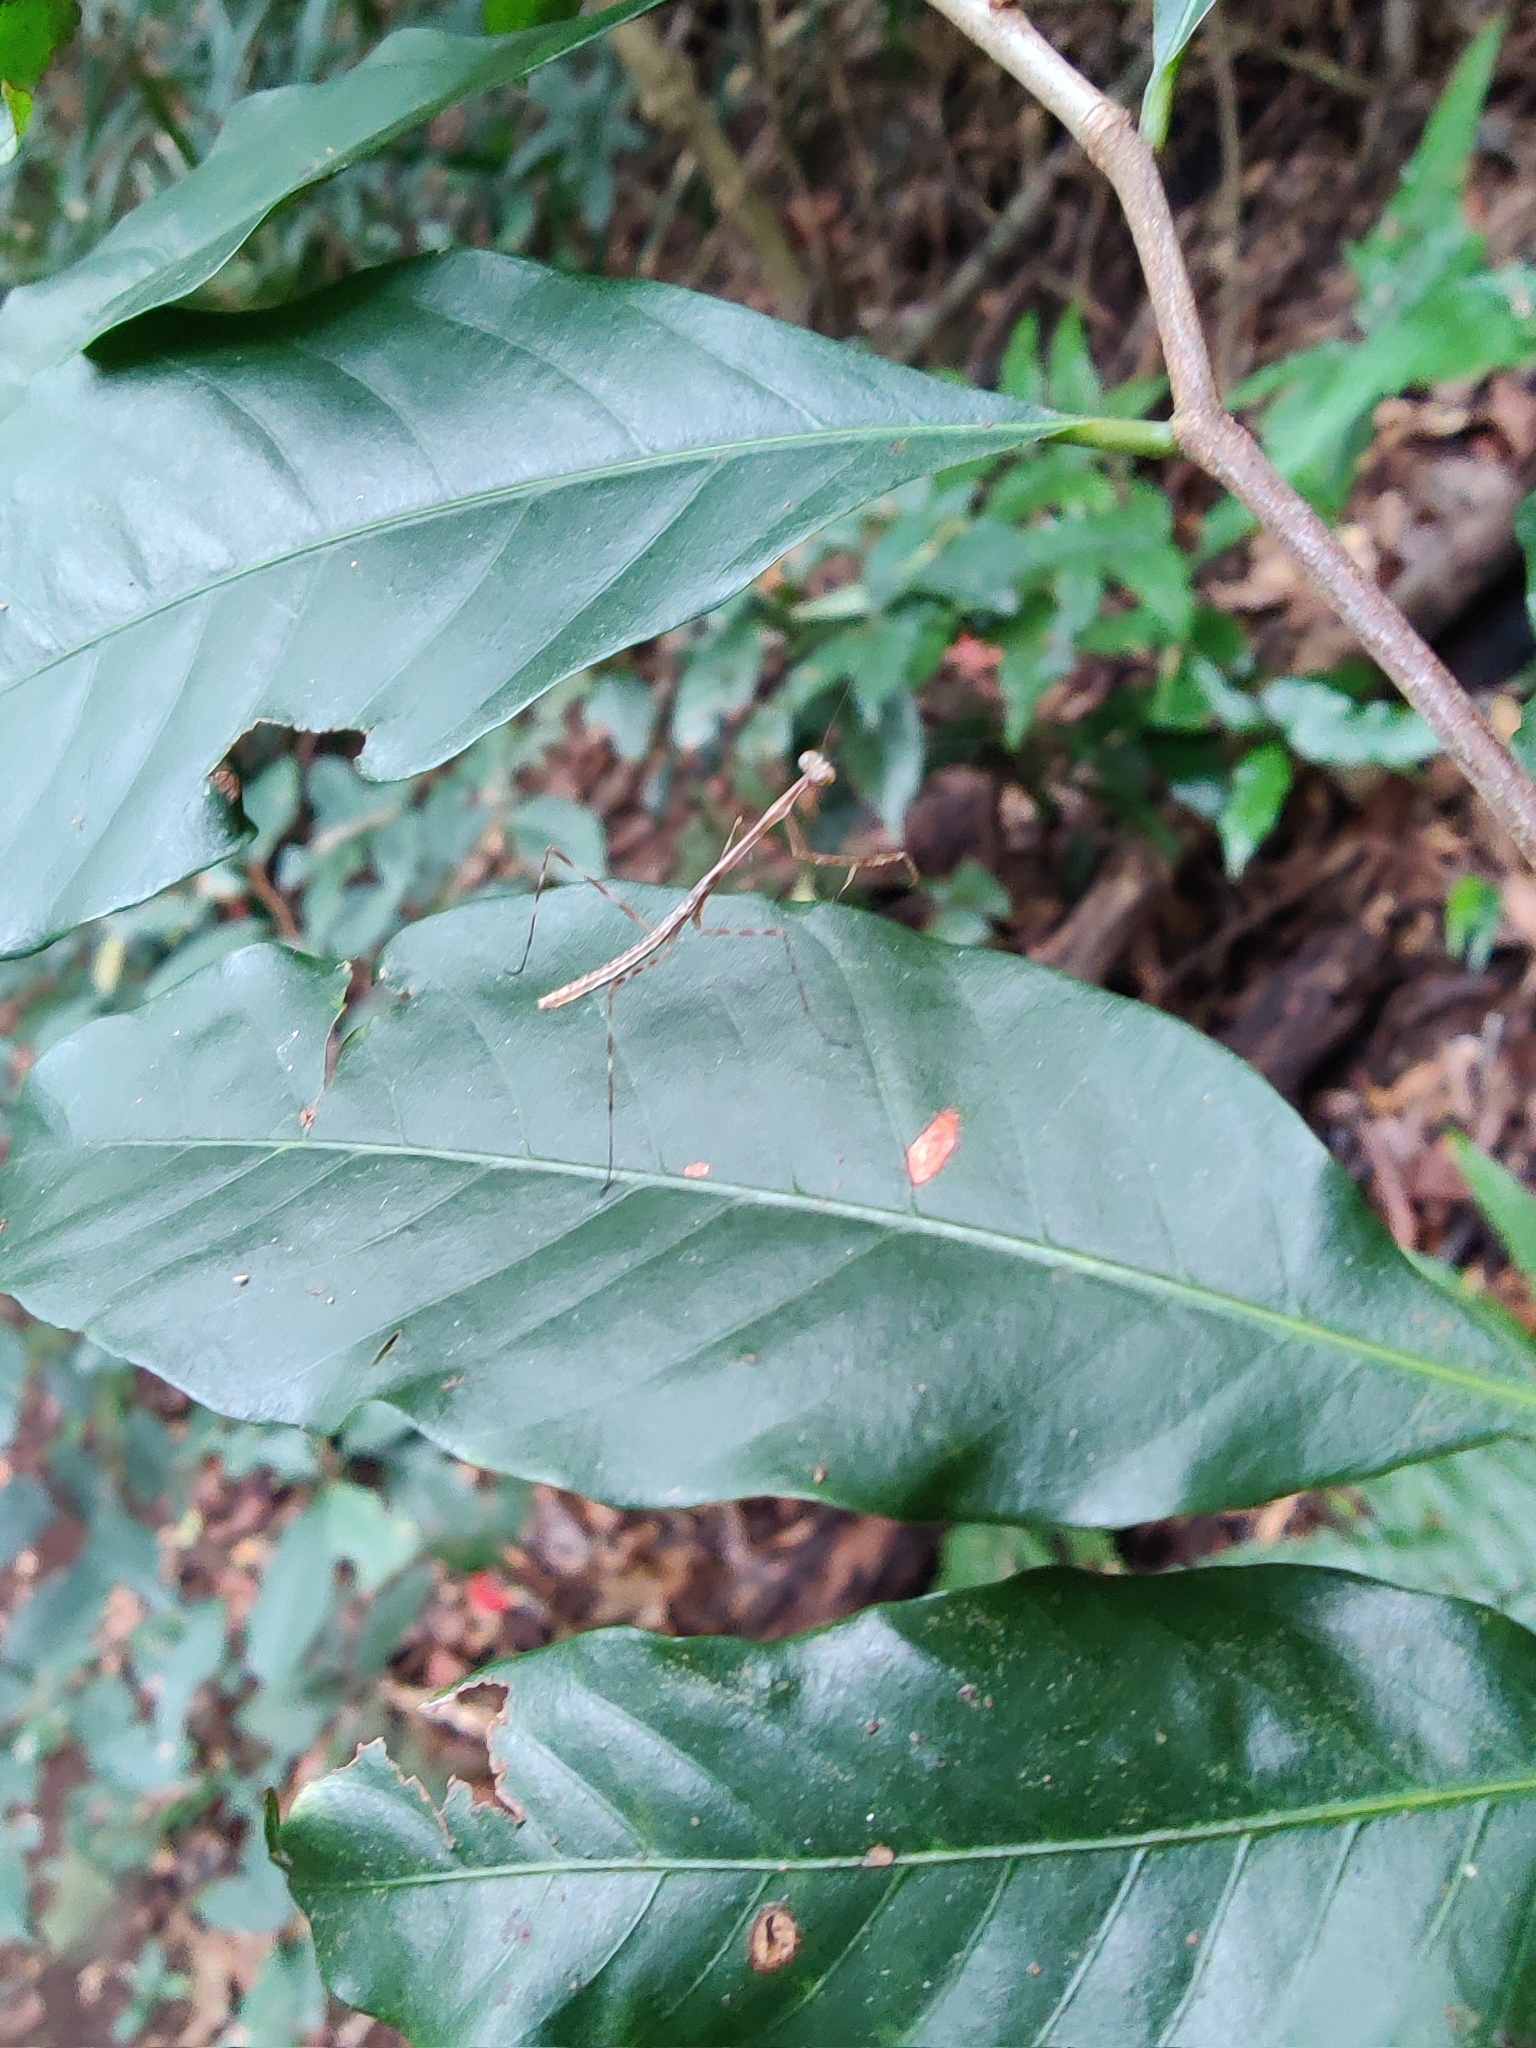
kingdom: Animalia
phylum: Arthropoda
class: Insecta
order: Mantodea
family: Deroplatyidae
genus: Indomenella
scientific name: Indomenella indica
